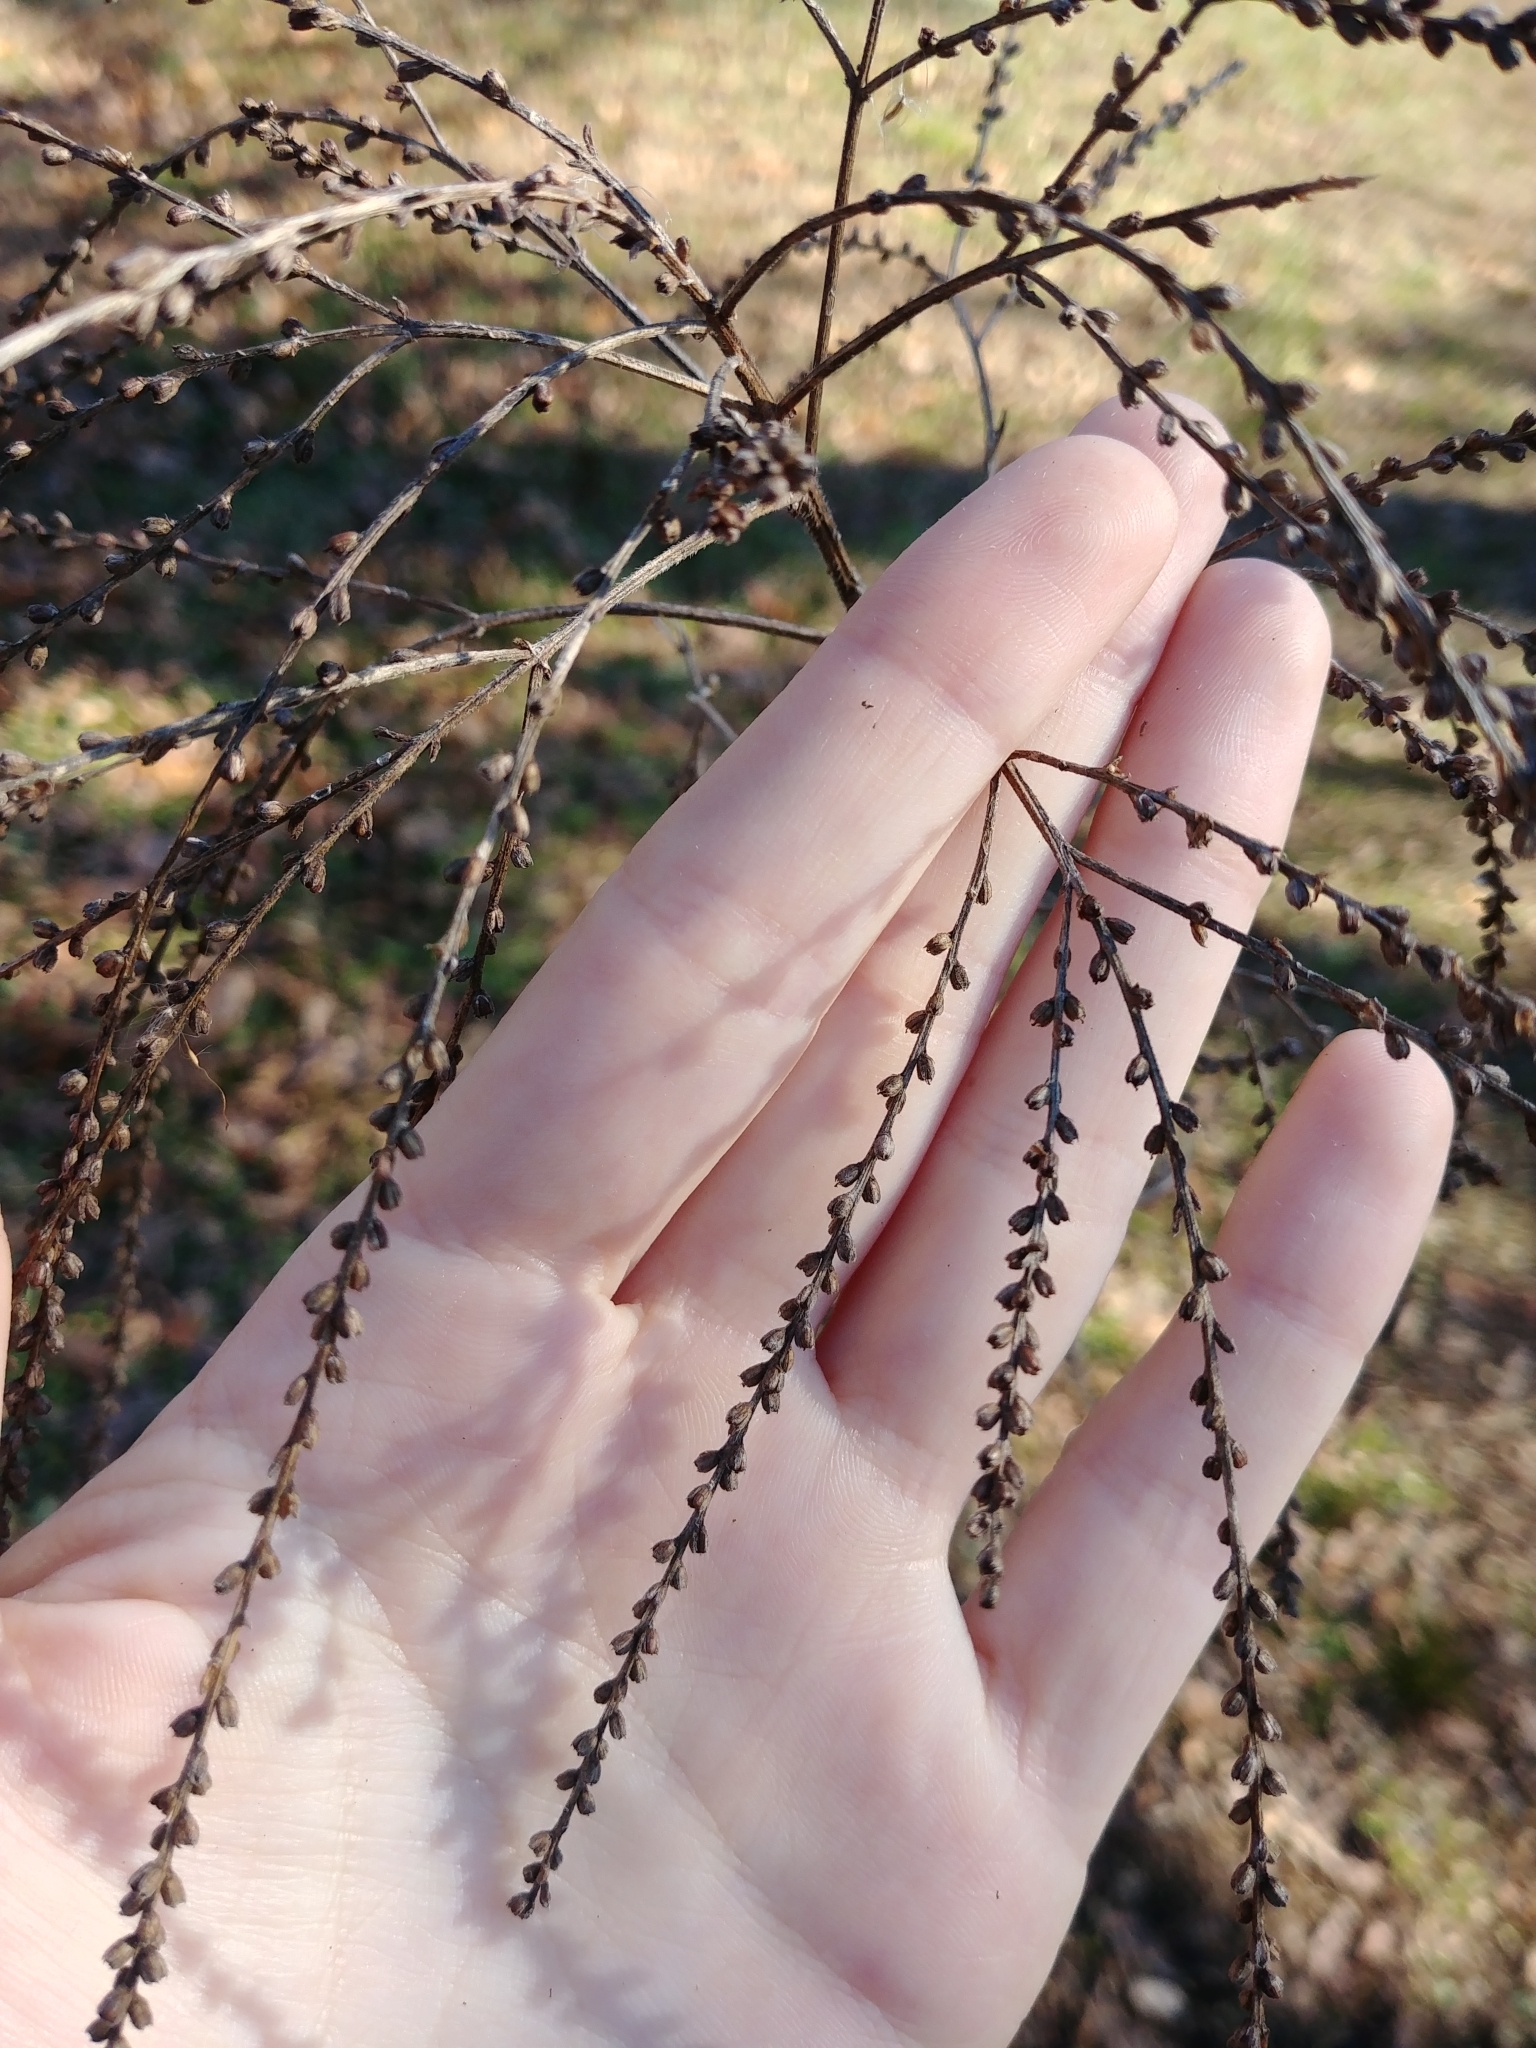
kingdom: Plantae
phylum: Tracheophyta
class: Magnoliopsida
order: Lamiales
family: Verbenaceae
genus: Verbena
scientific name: Verbena urticifolia
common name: Nettle-leaved vervain
